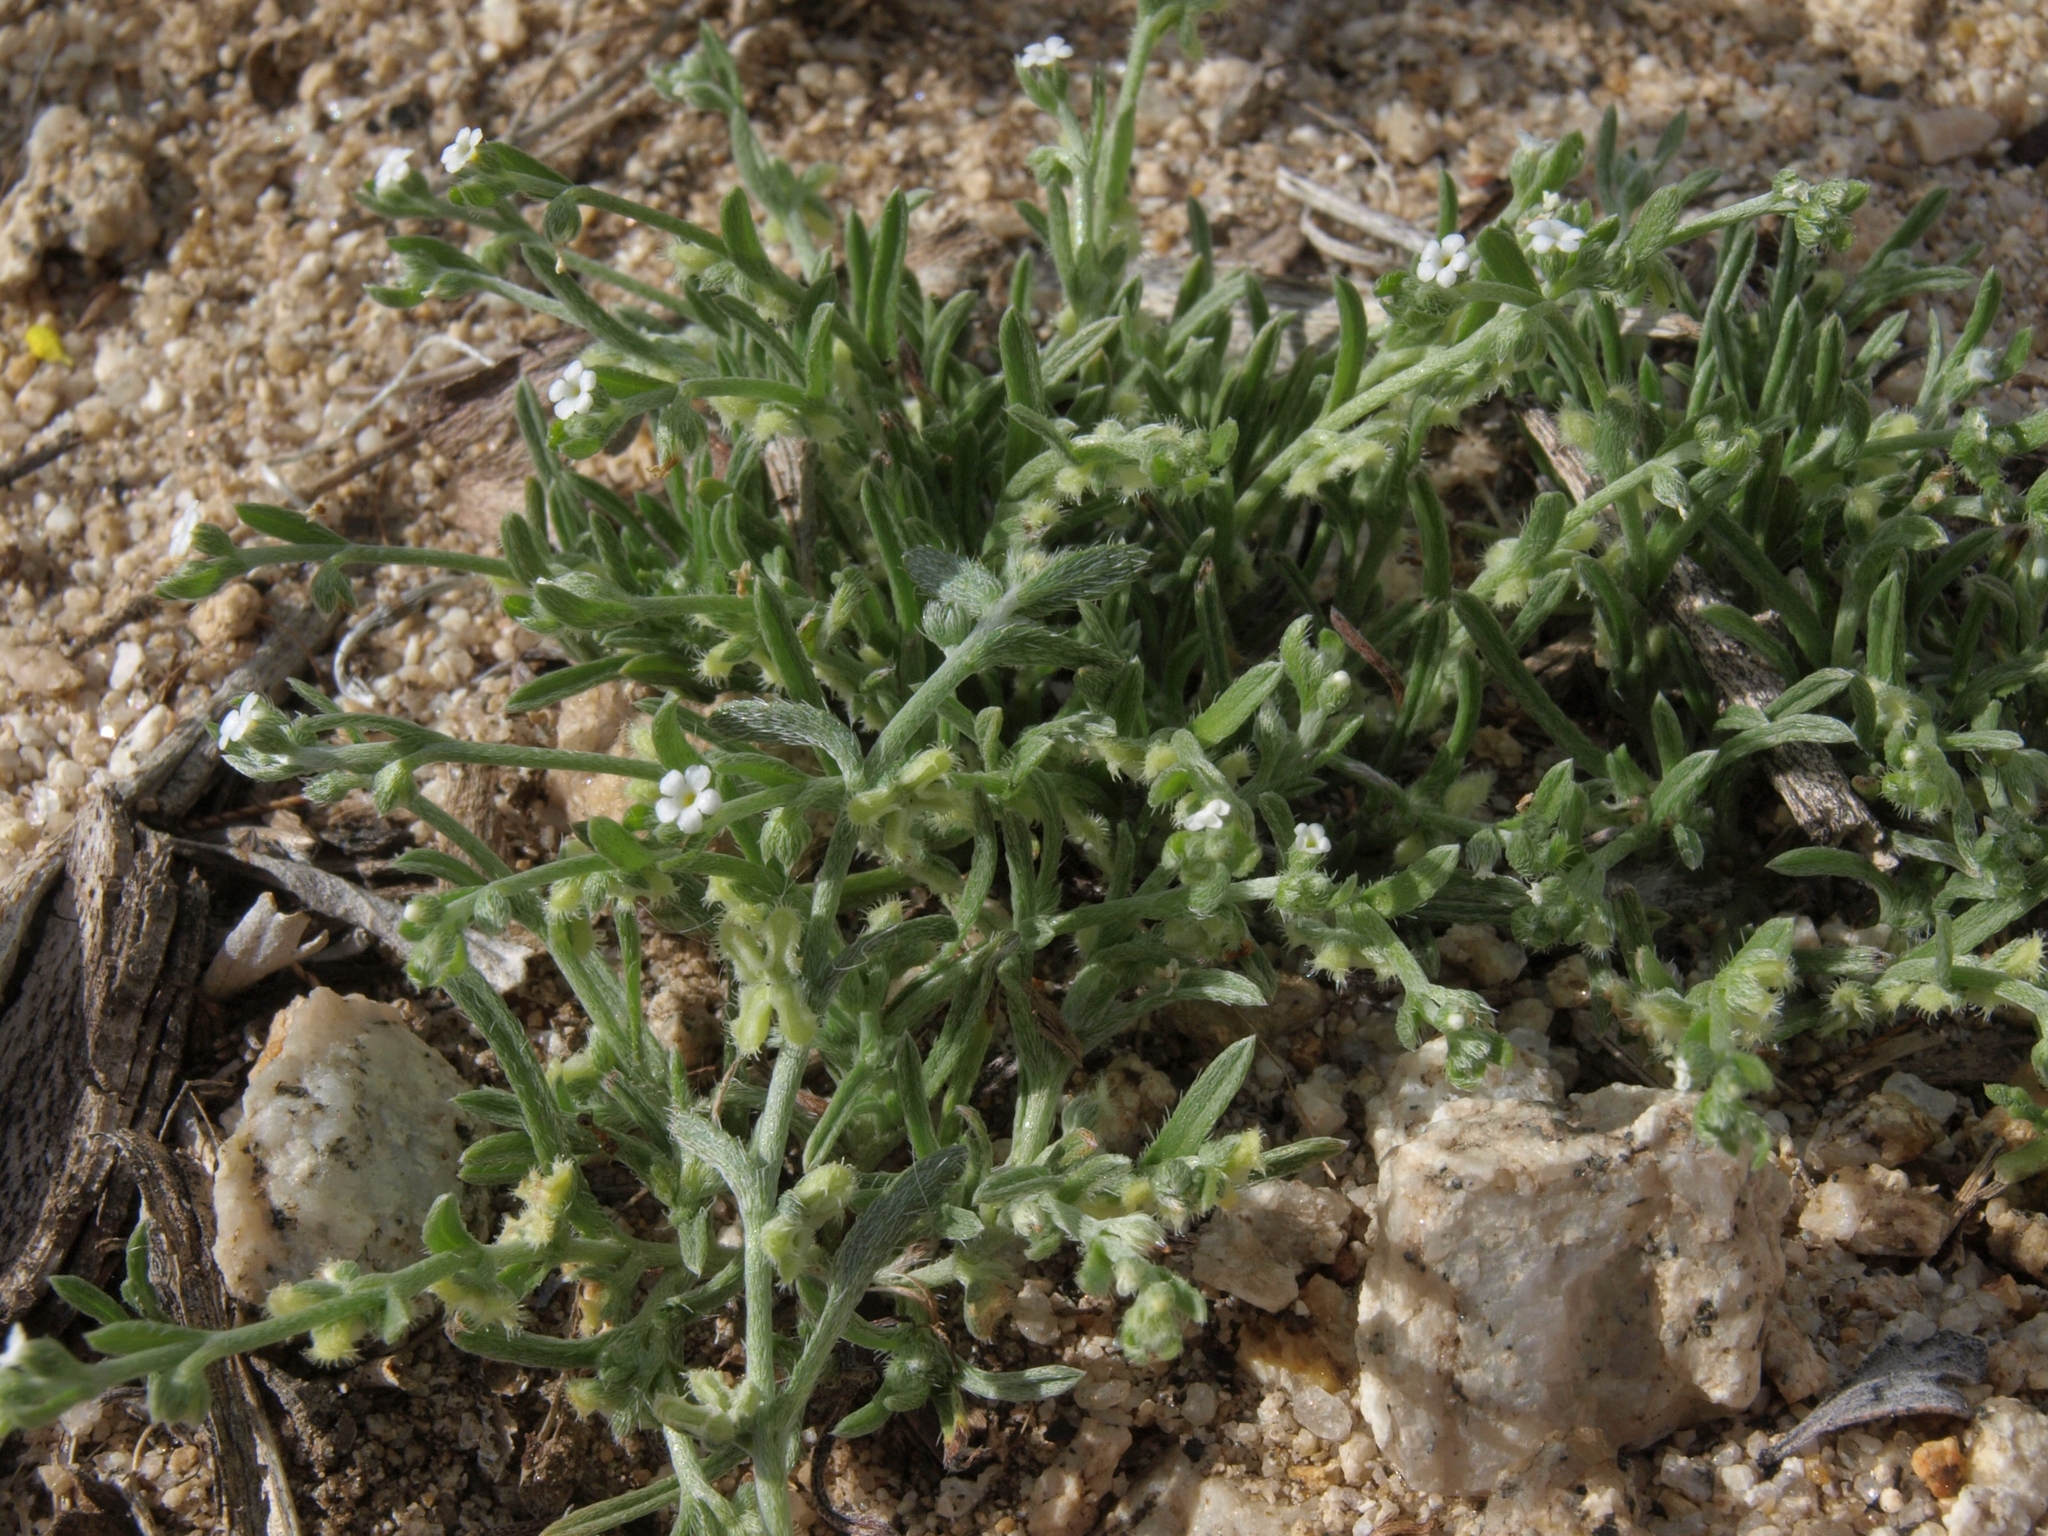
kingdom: Plantae
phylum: Tracheophyta
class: Magnoliopsida
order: Boraginales
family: Boraginaceae
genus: Pectocarya
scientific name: Pectocarya penicillata
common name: Short-leaved combseed
